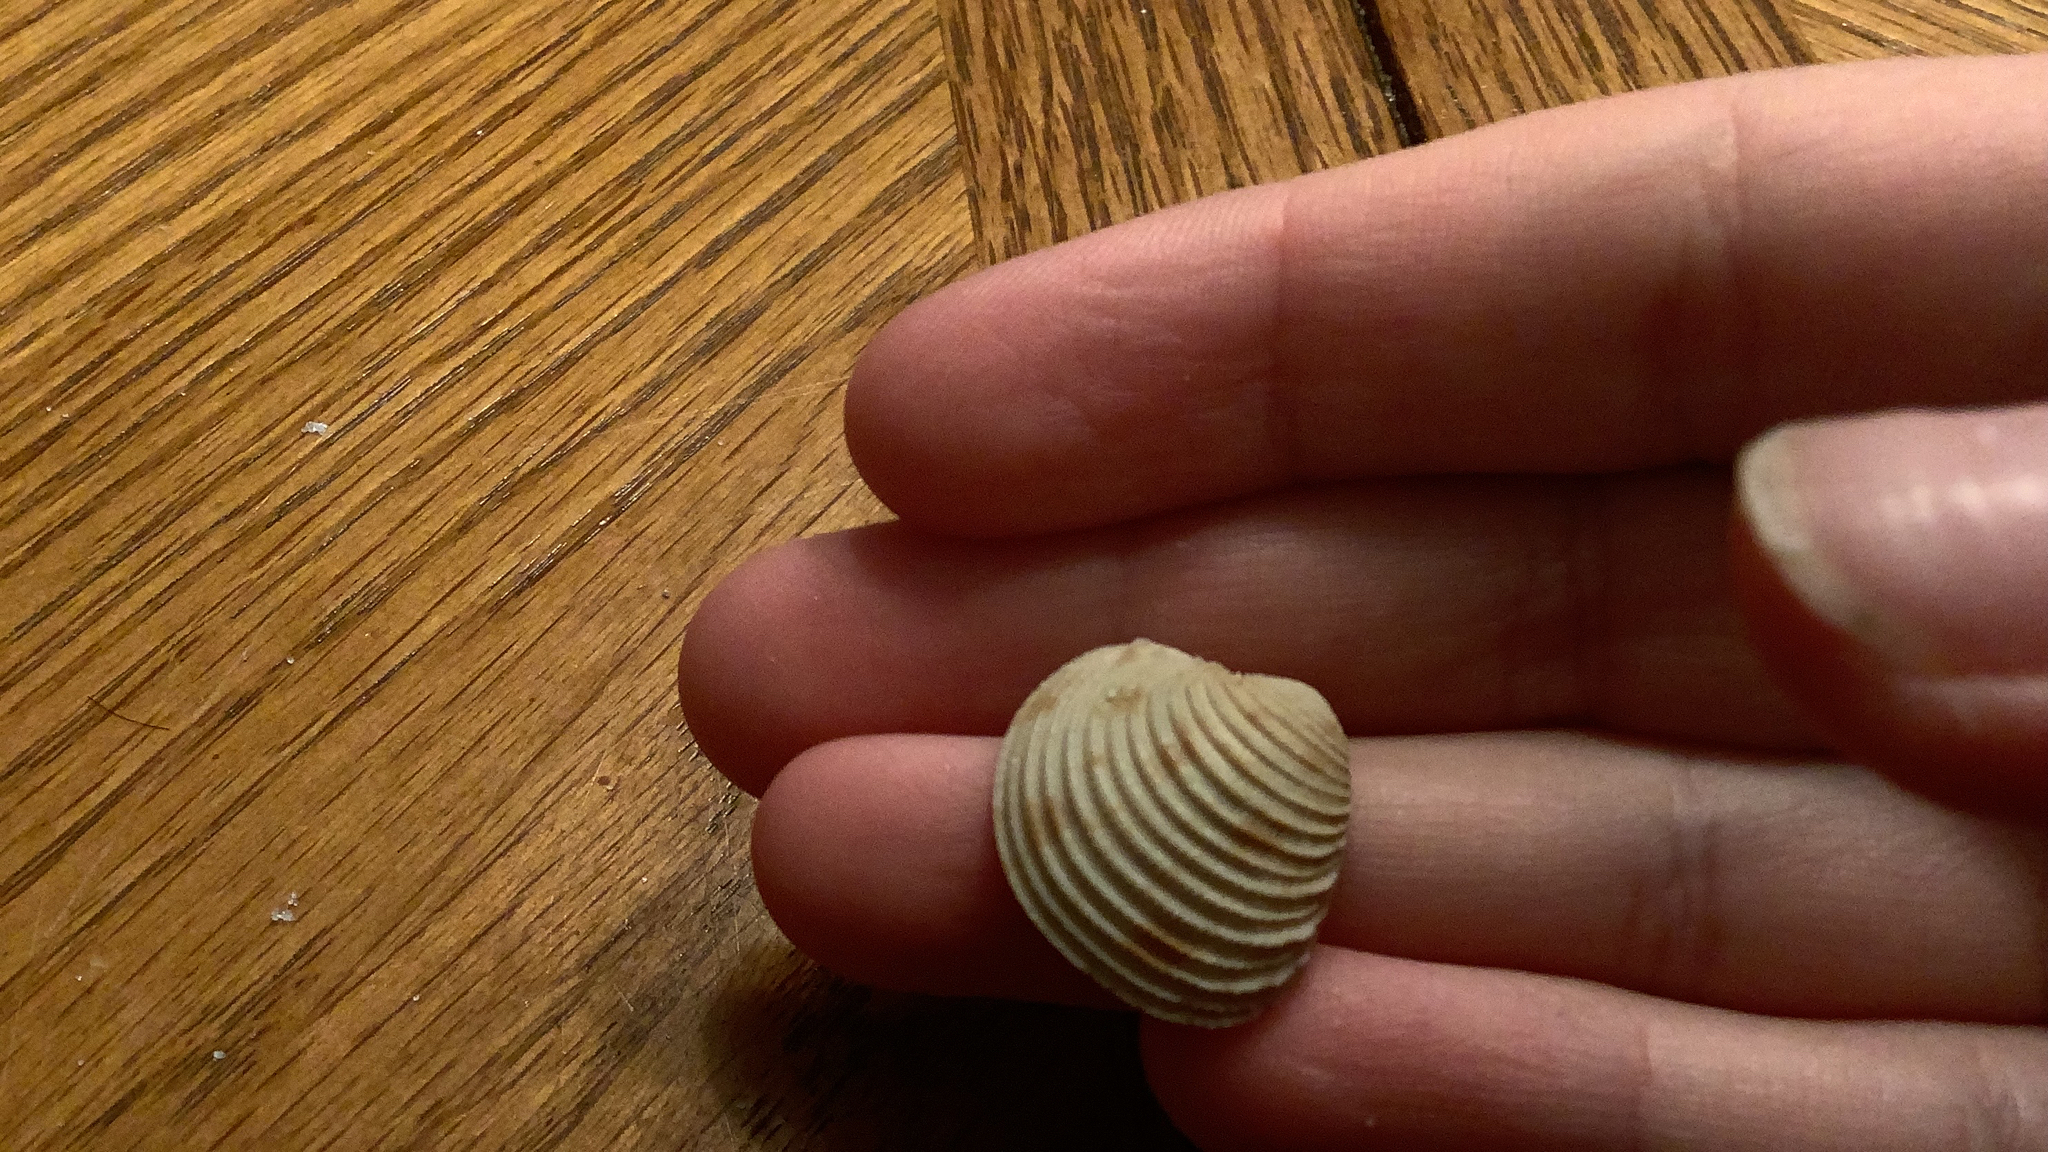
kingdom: Animalia
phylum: Mollusca
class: Bivalvia
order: Venerida
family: Veneridae
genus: Chionopsis
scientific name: Chionopsis intapurpurea
